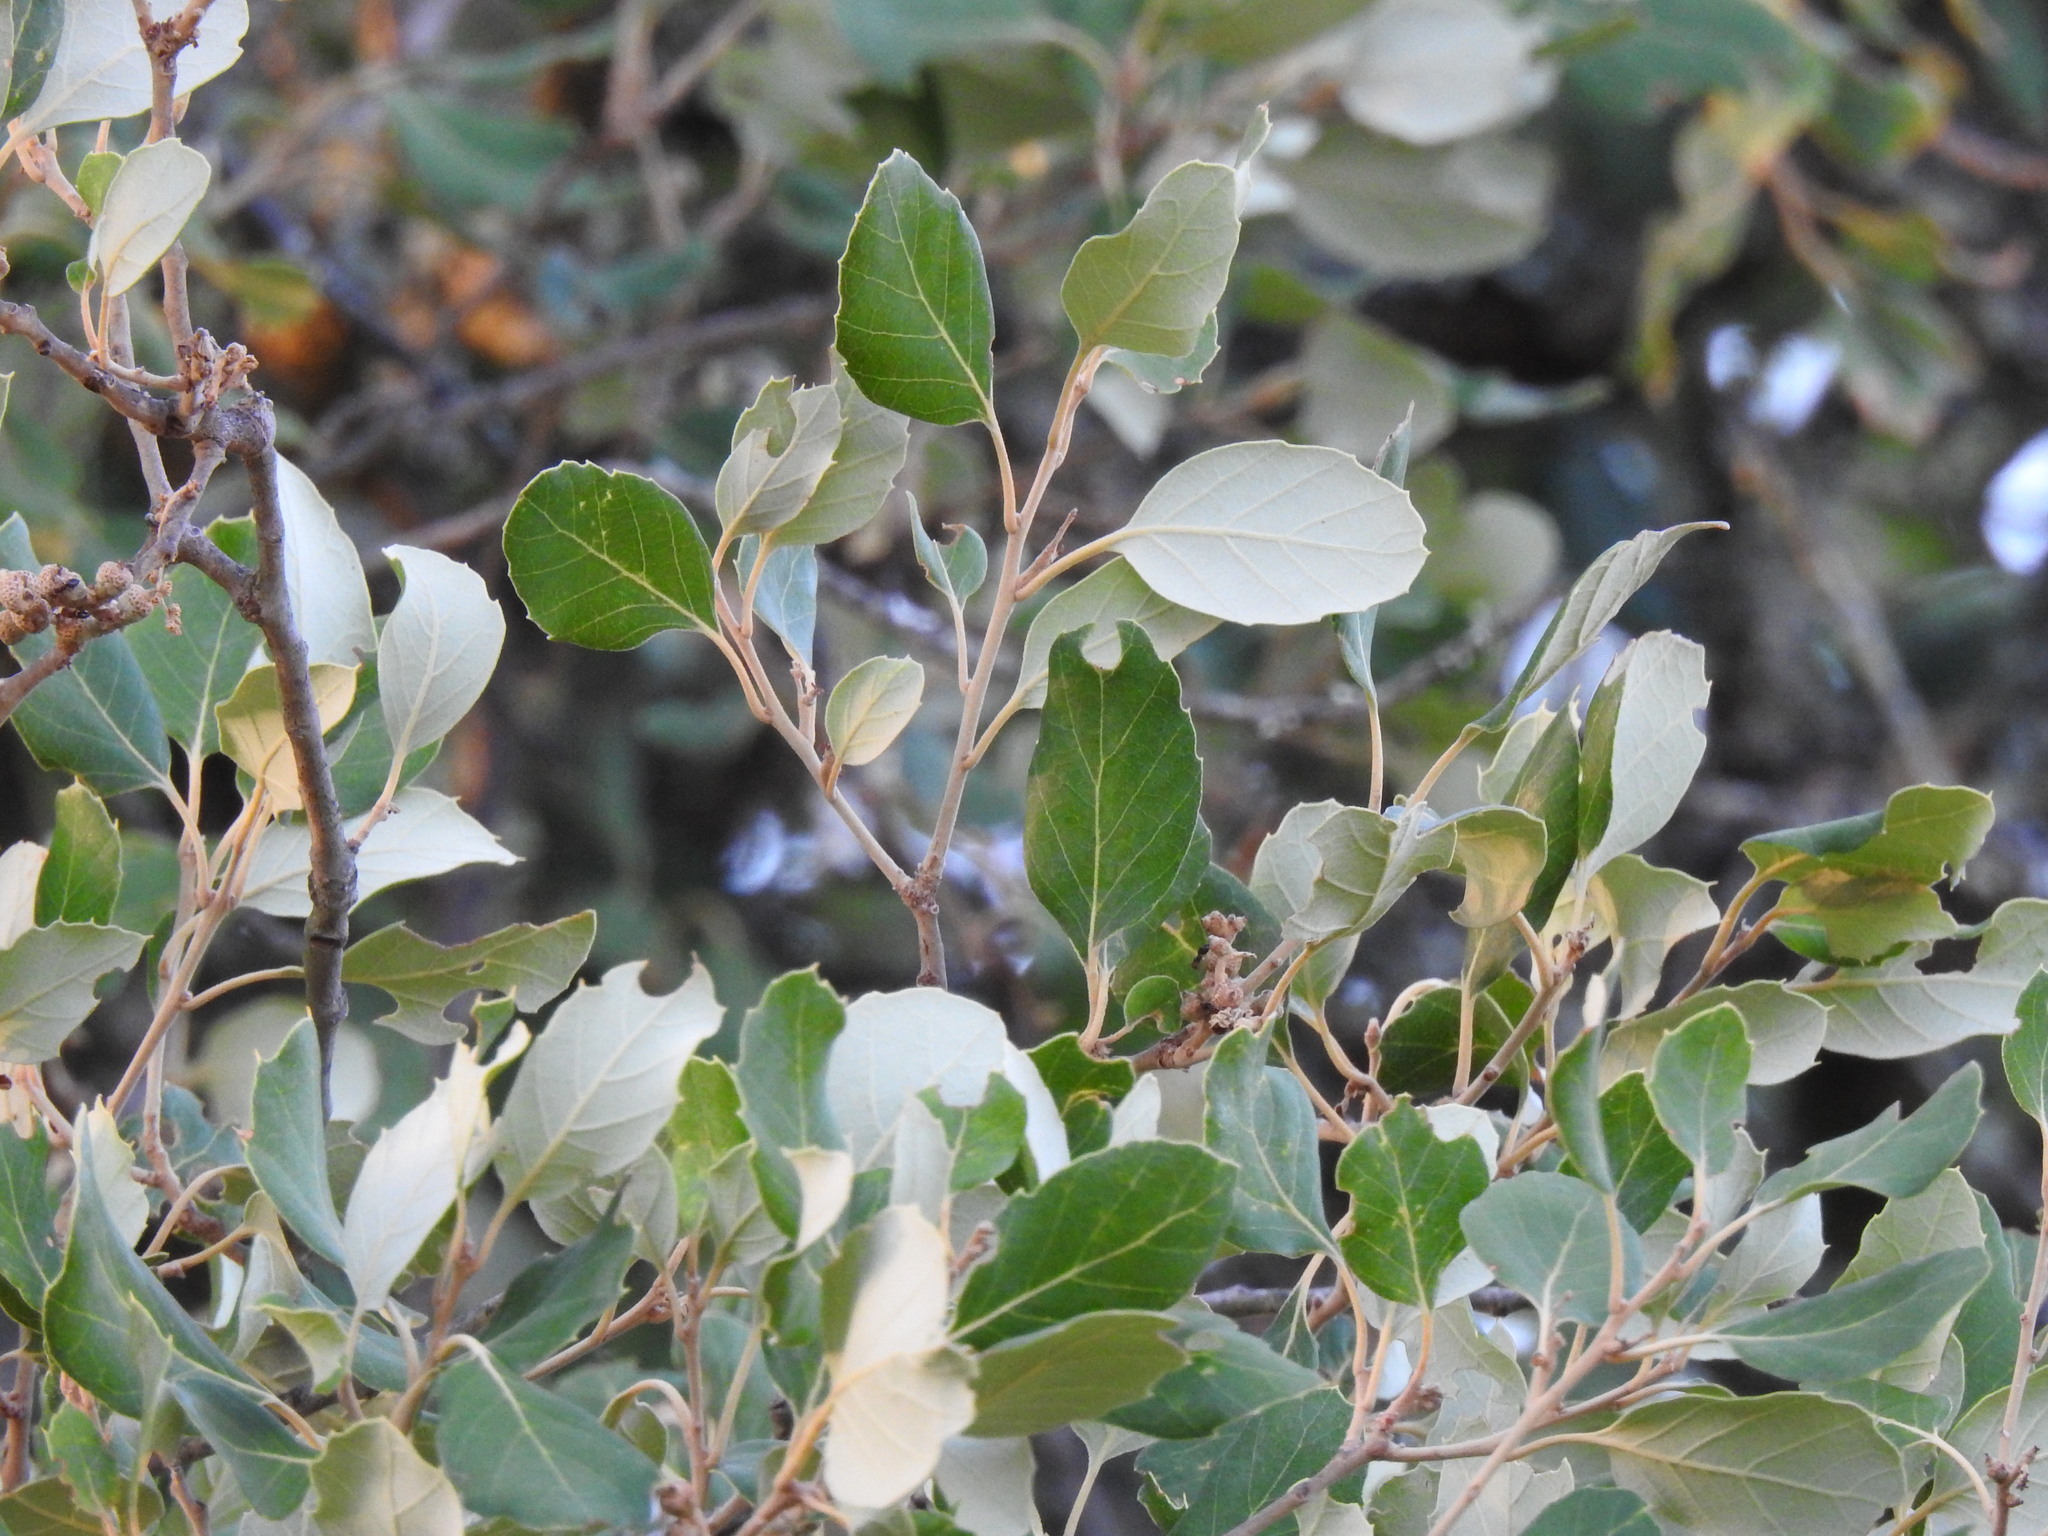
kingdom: Plantae
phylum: Tracheophyta
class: Magnoliopsida
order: Fagales
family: Fagaceae
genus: Quercus
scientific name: Quercus suber
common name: Cork oak
